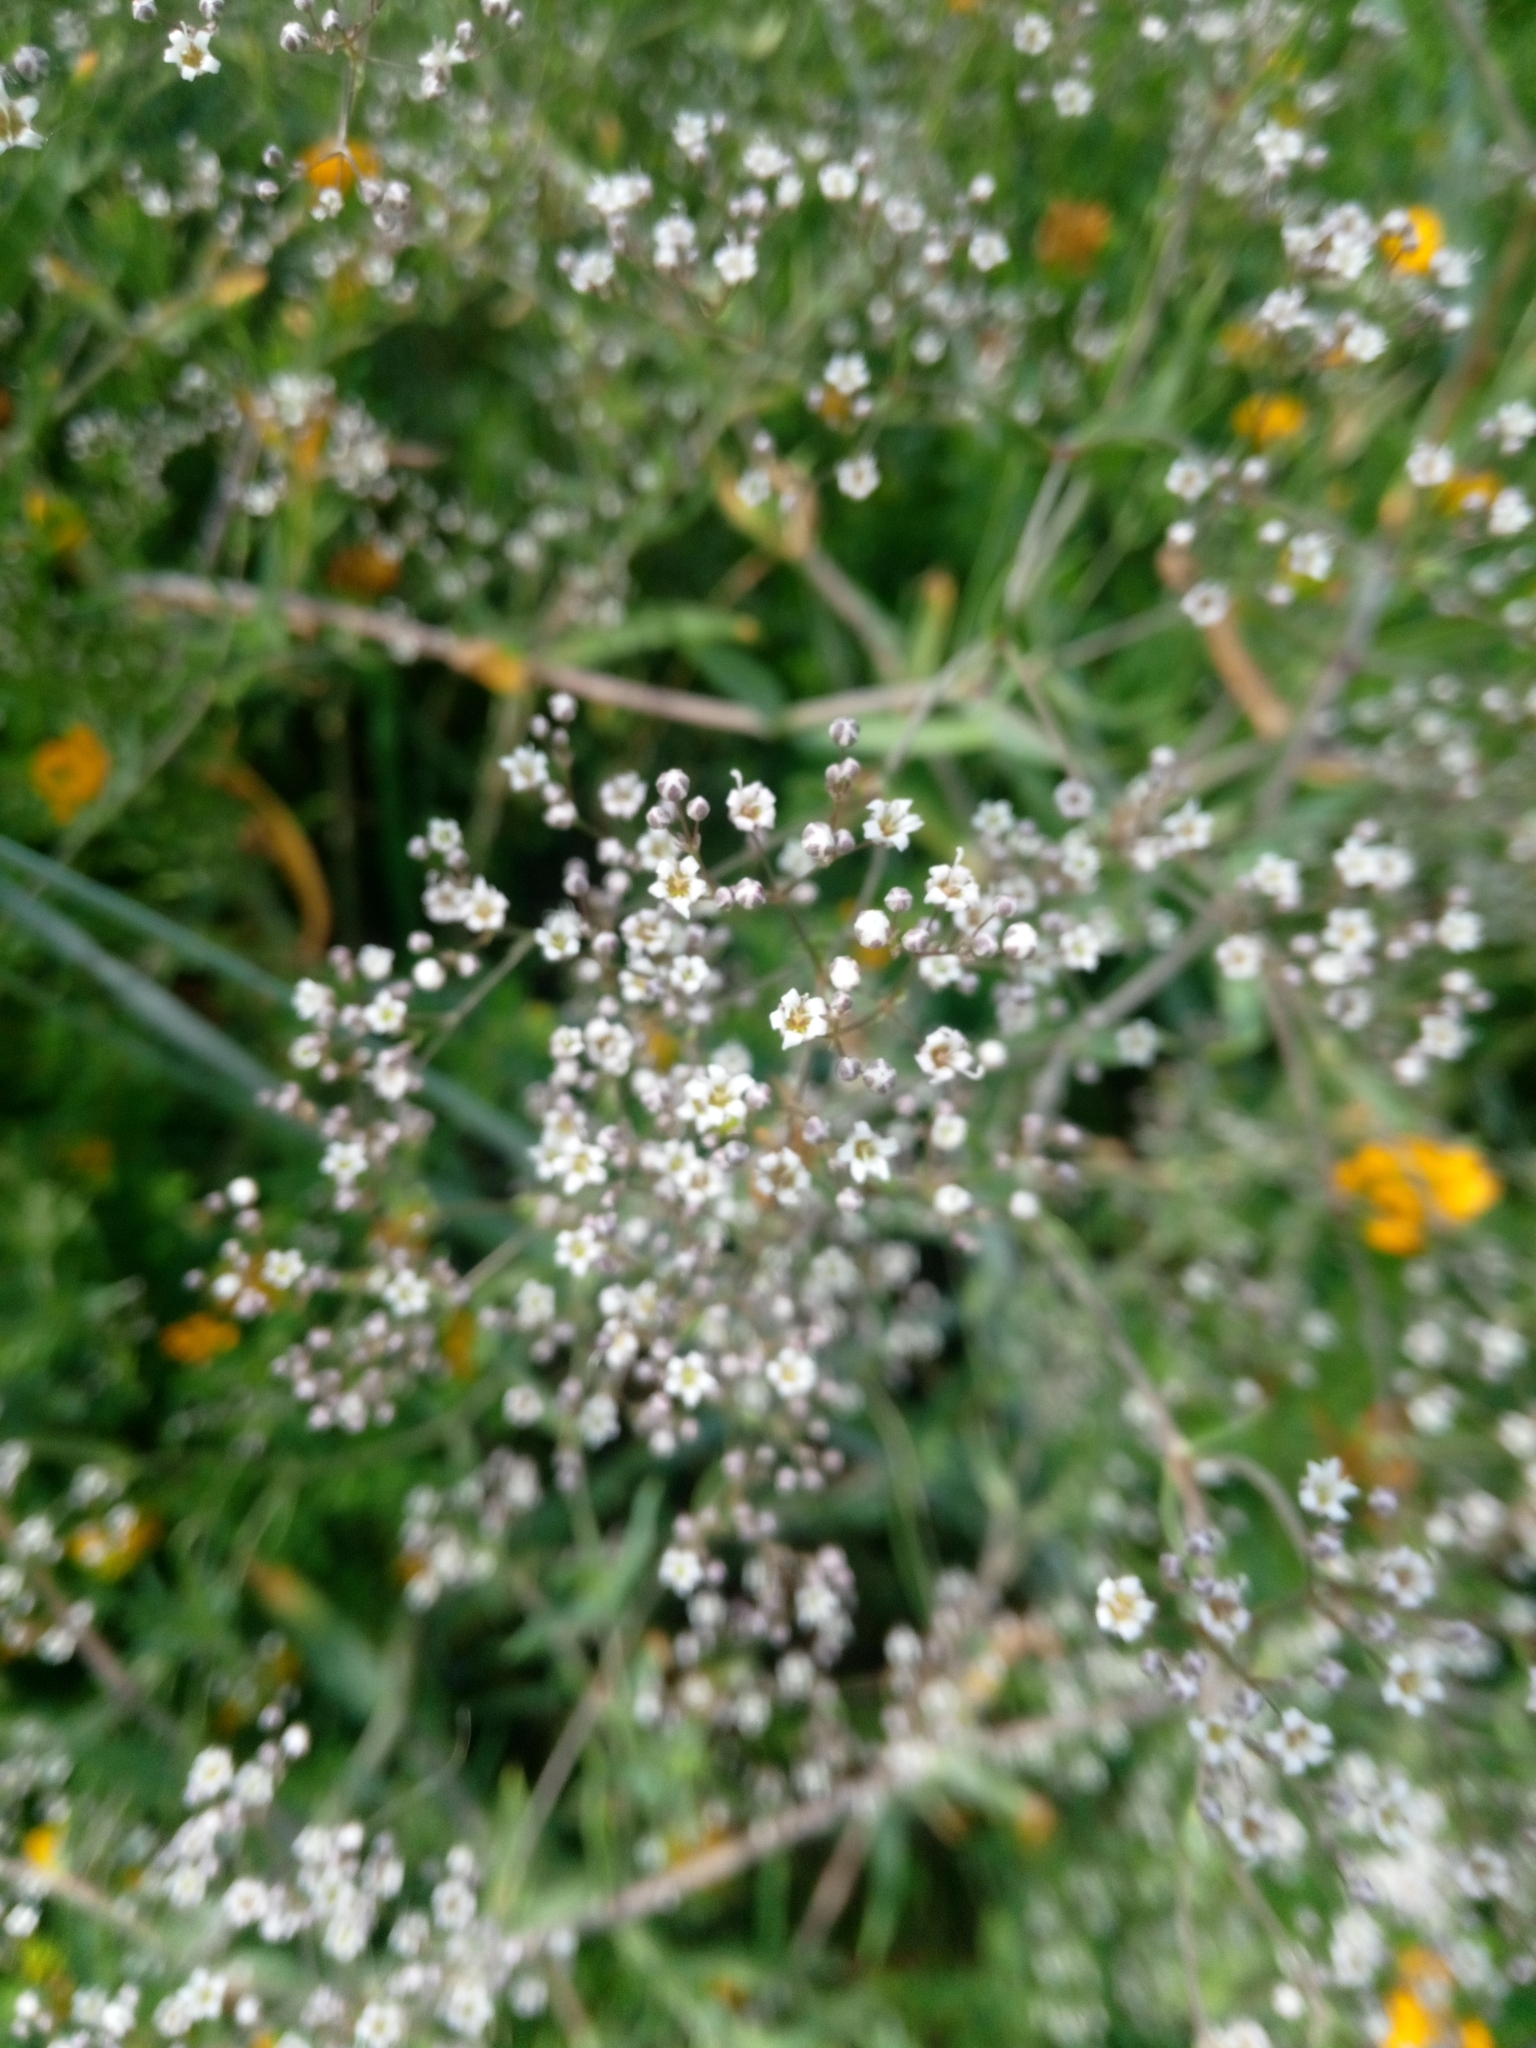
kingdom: Plantae
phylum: Tracheophyta
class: Magnoliopsida
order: Caryophyllales
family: Caryophyllaceae
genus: Gypsophila
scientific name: Gypsophila paniculata
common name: Baby's-breath
